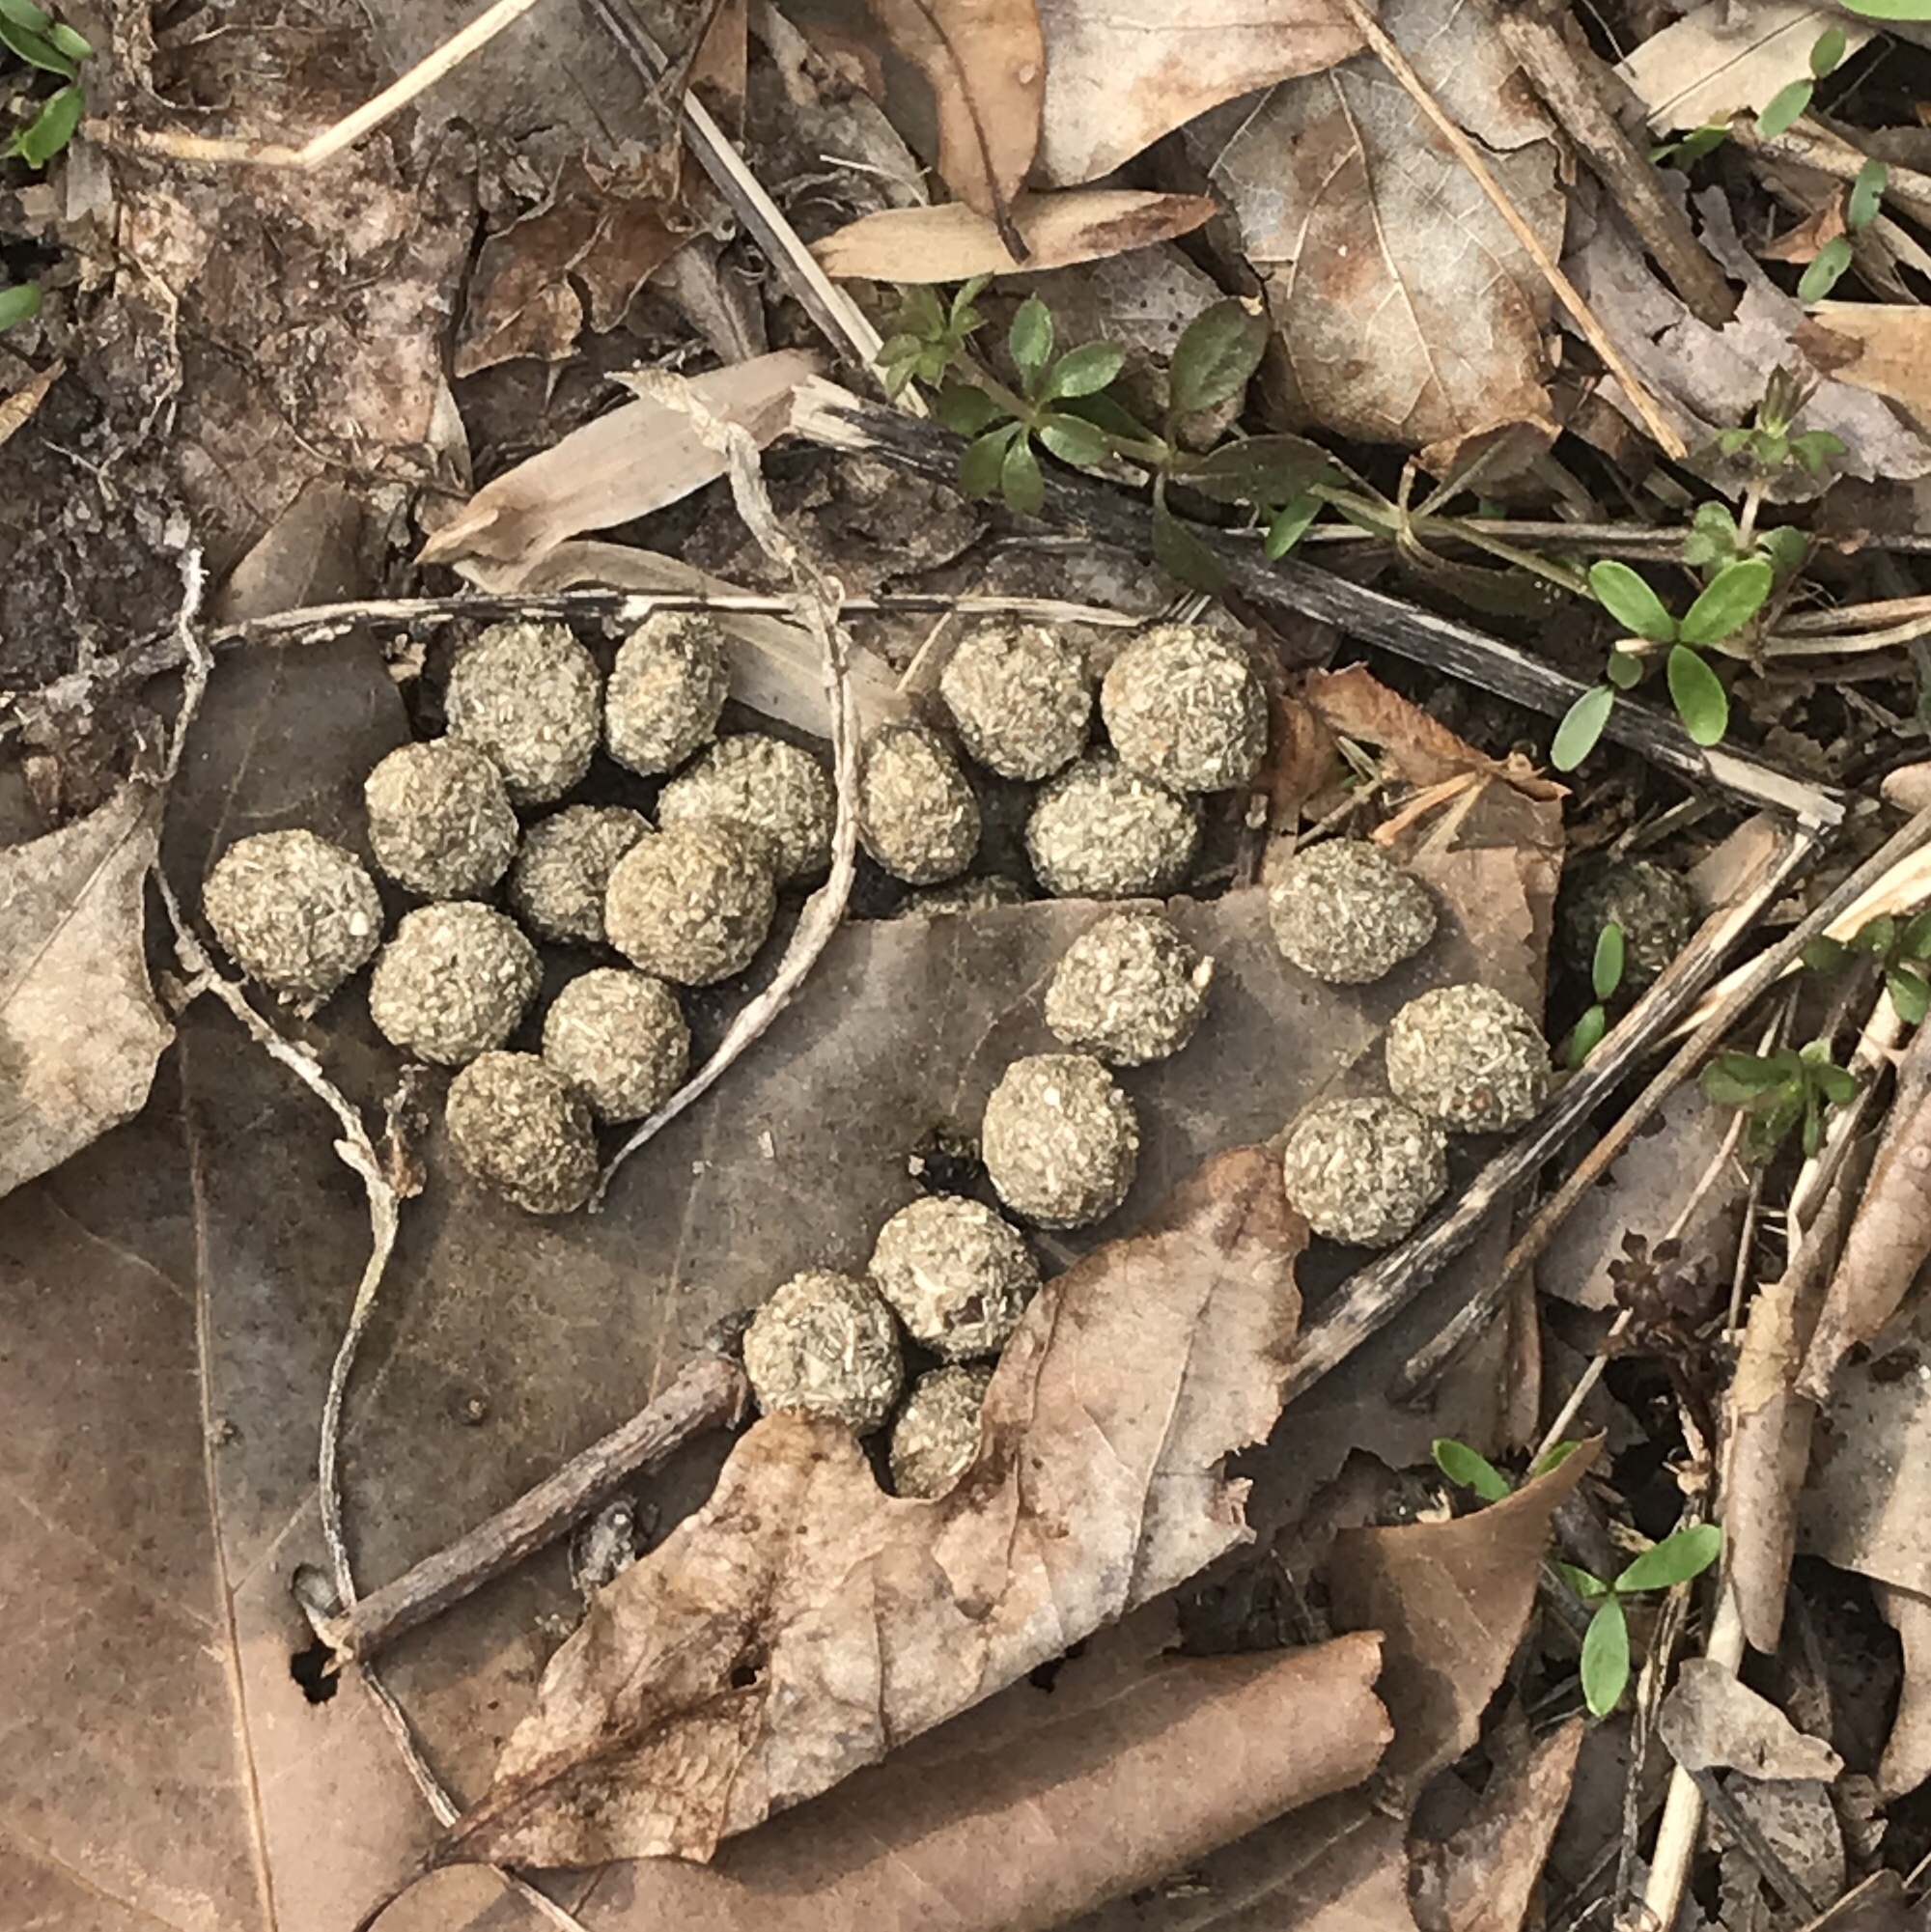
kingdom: Animalia
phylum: Chordata
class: Mammalia
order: Lagomorpha
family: Leporidae
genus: Sylvilagus
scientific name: Sylvilagus floridanus
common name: Eastern cottontail
